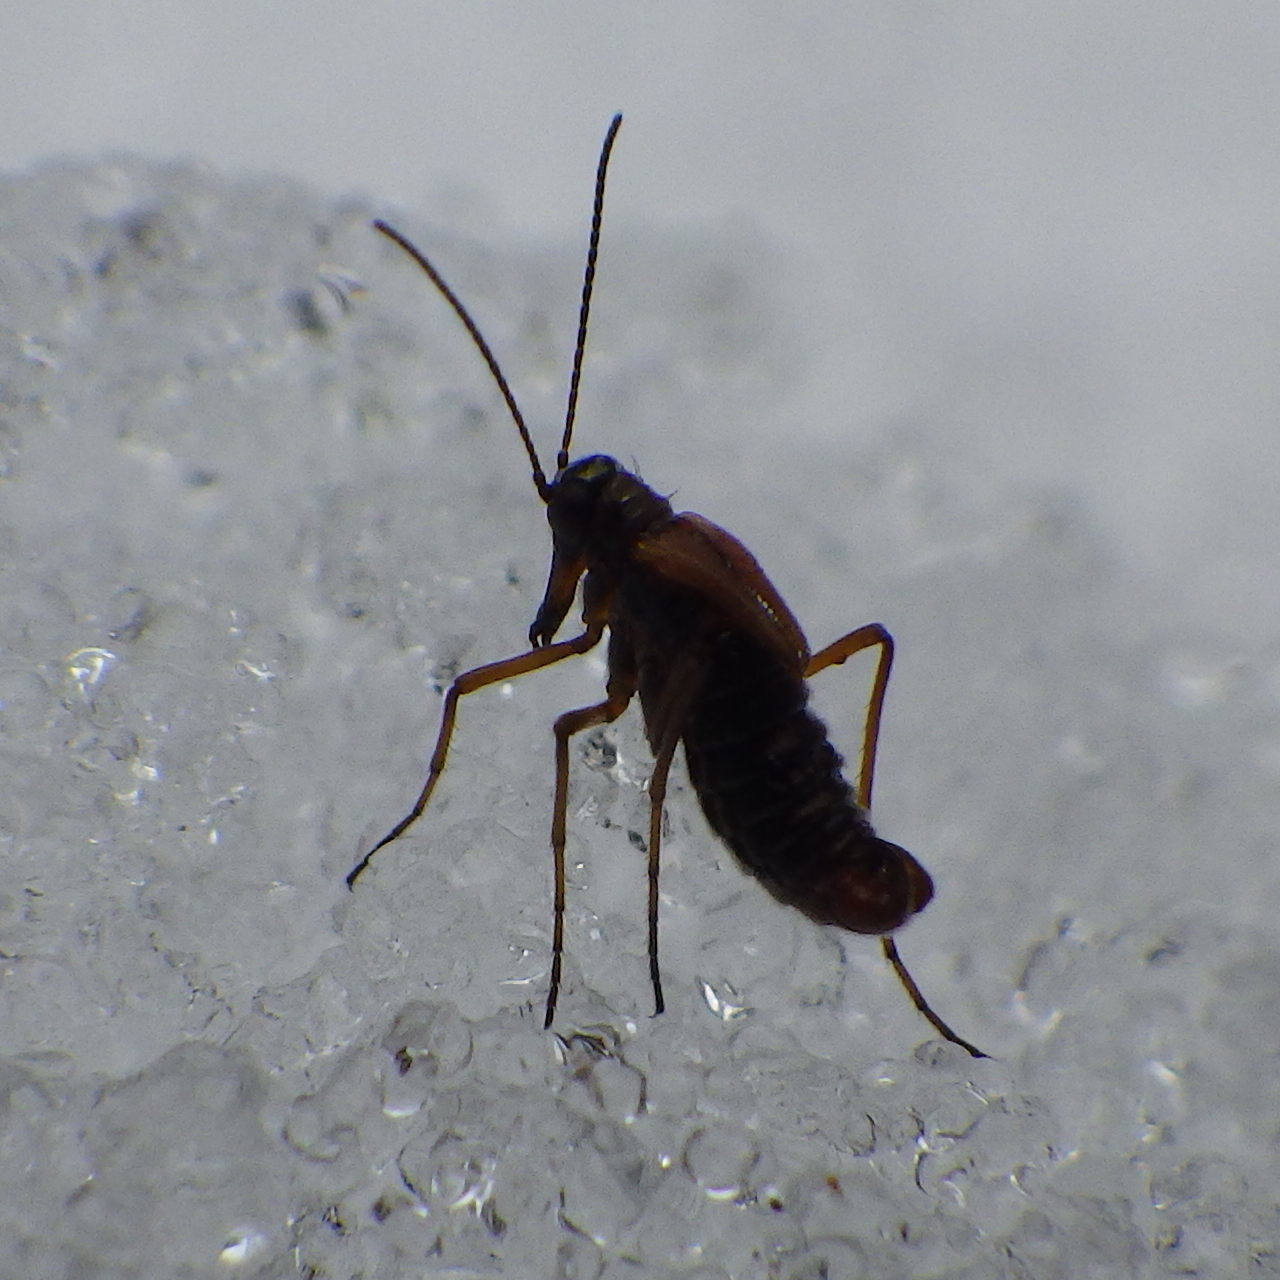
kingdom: Animalia
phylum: Arthropoda
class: Insecta
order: Mecoptera
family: Boreidae
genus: Boreus
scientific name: Boreus nivoriundus
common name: Snow-born boreus
